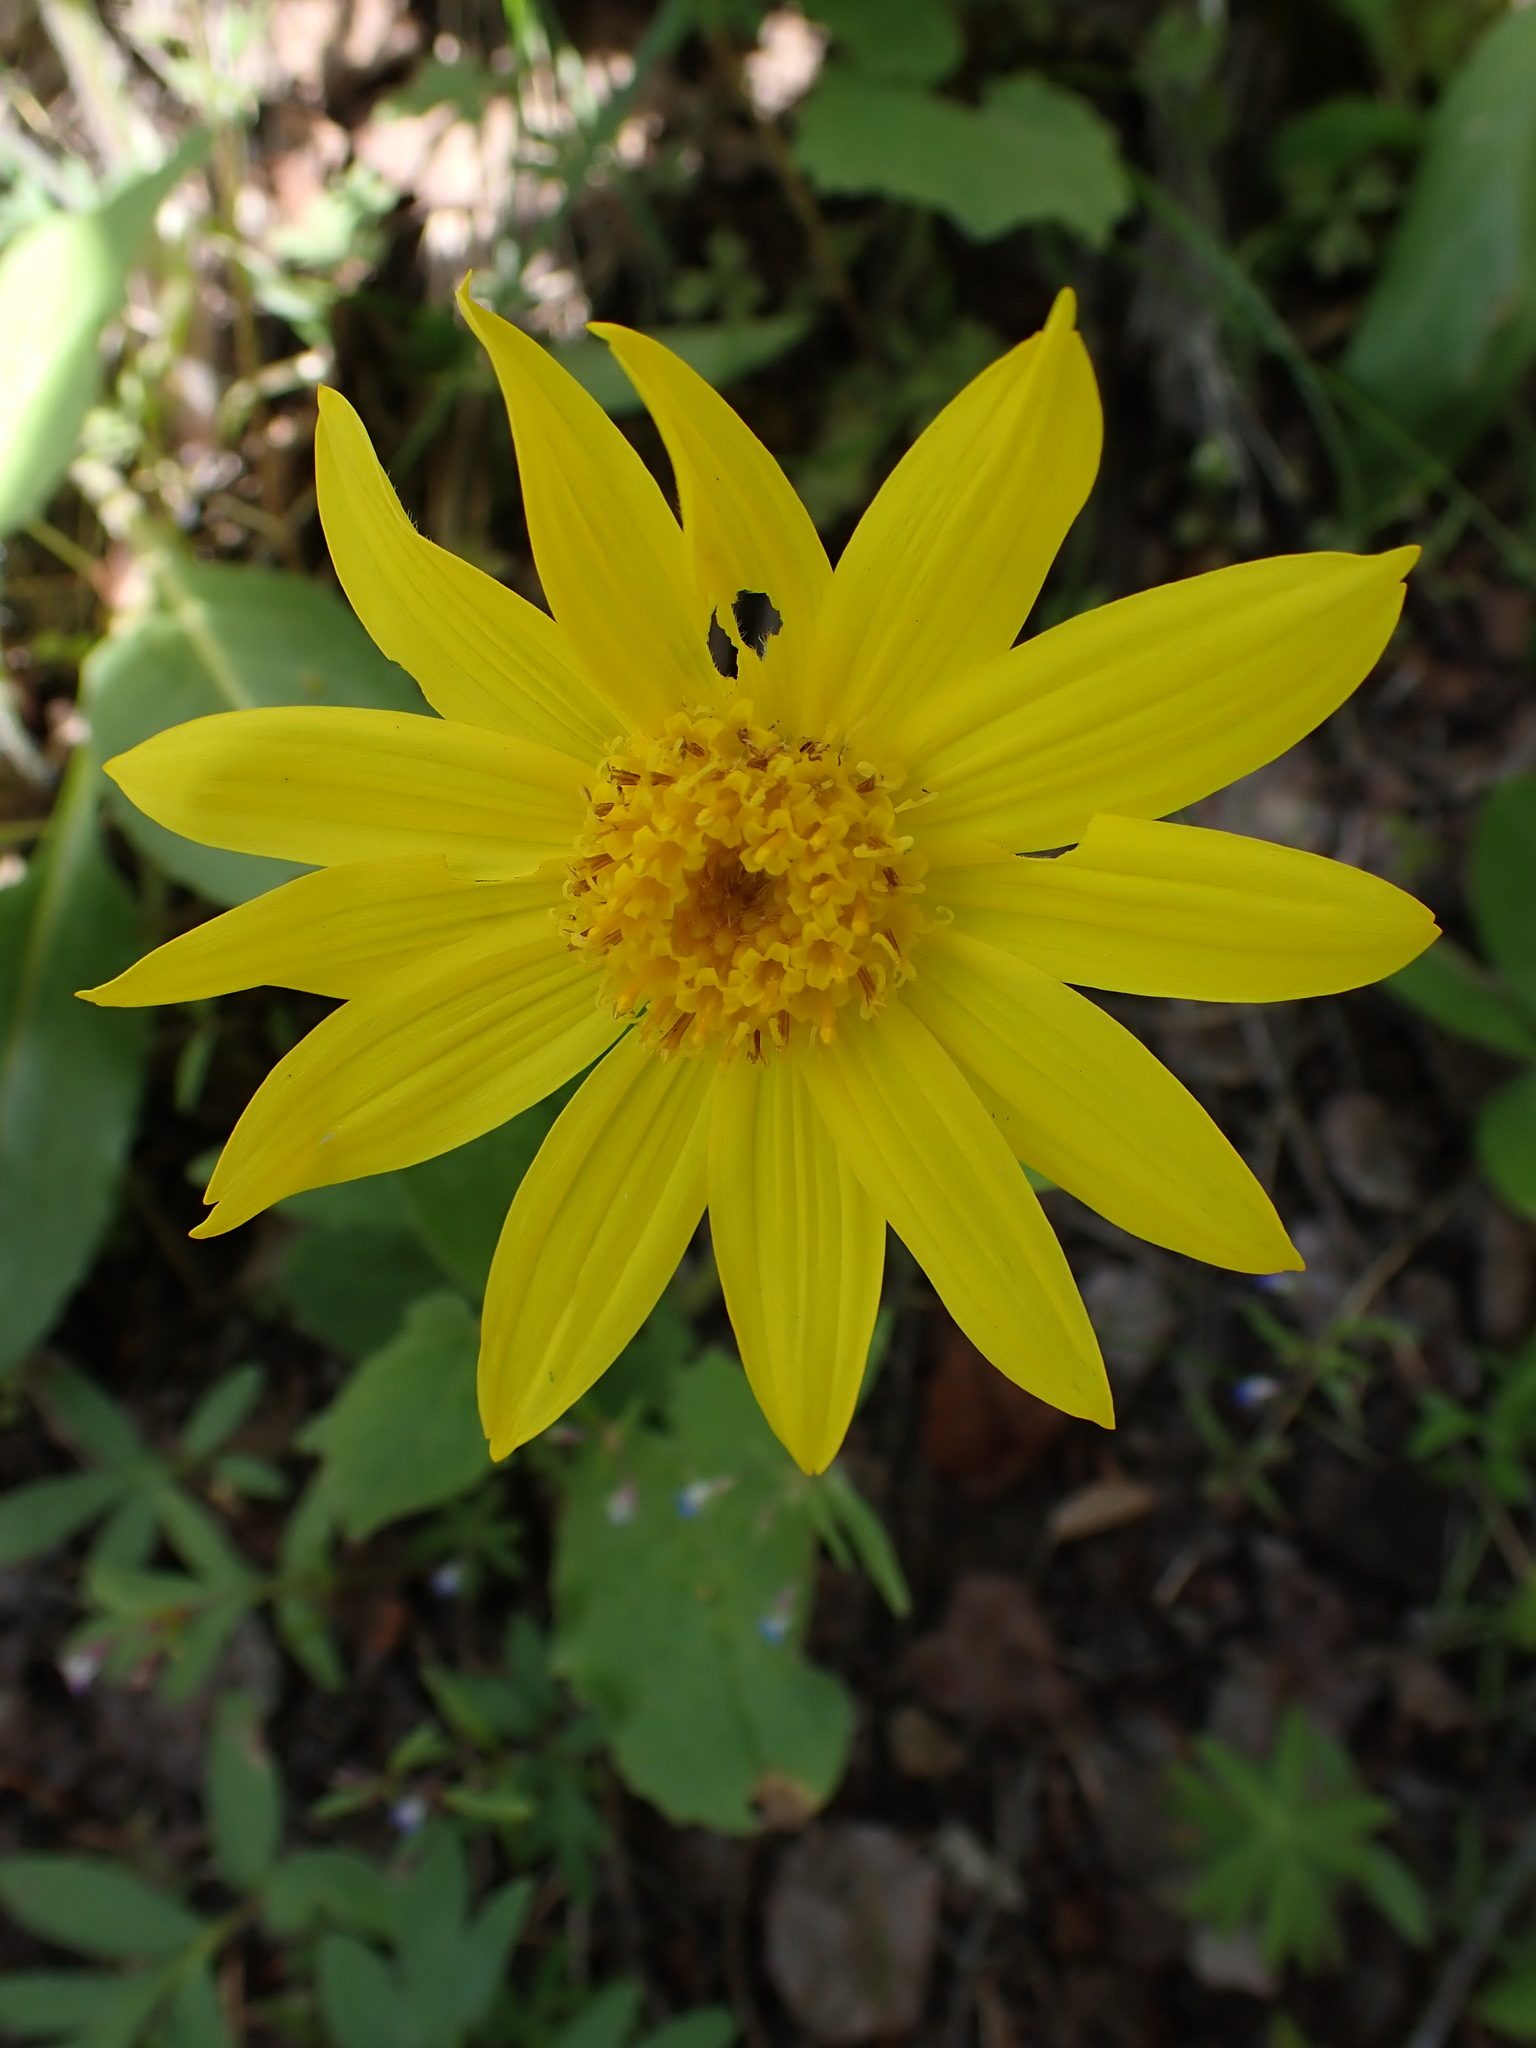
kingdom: Plantae
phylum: Tracheophyta
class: Magnoliopsida
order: Asterales
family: Asteraceae
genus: Arnica
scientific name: Arnica cordifolia
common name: Heart-leaf arnica
